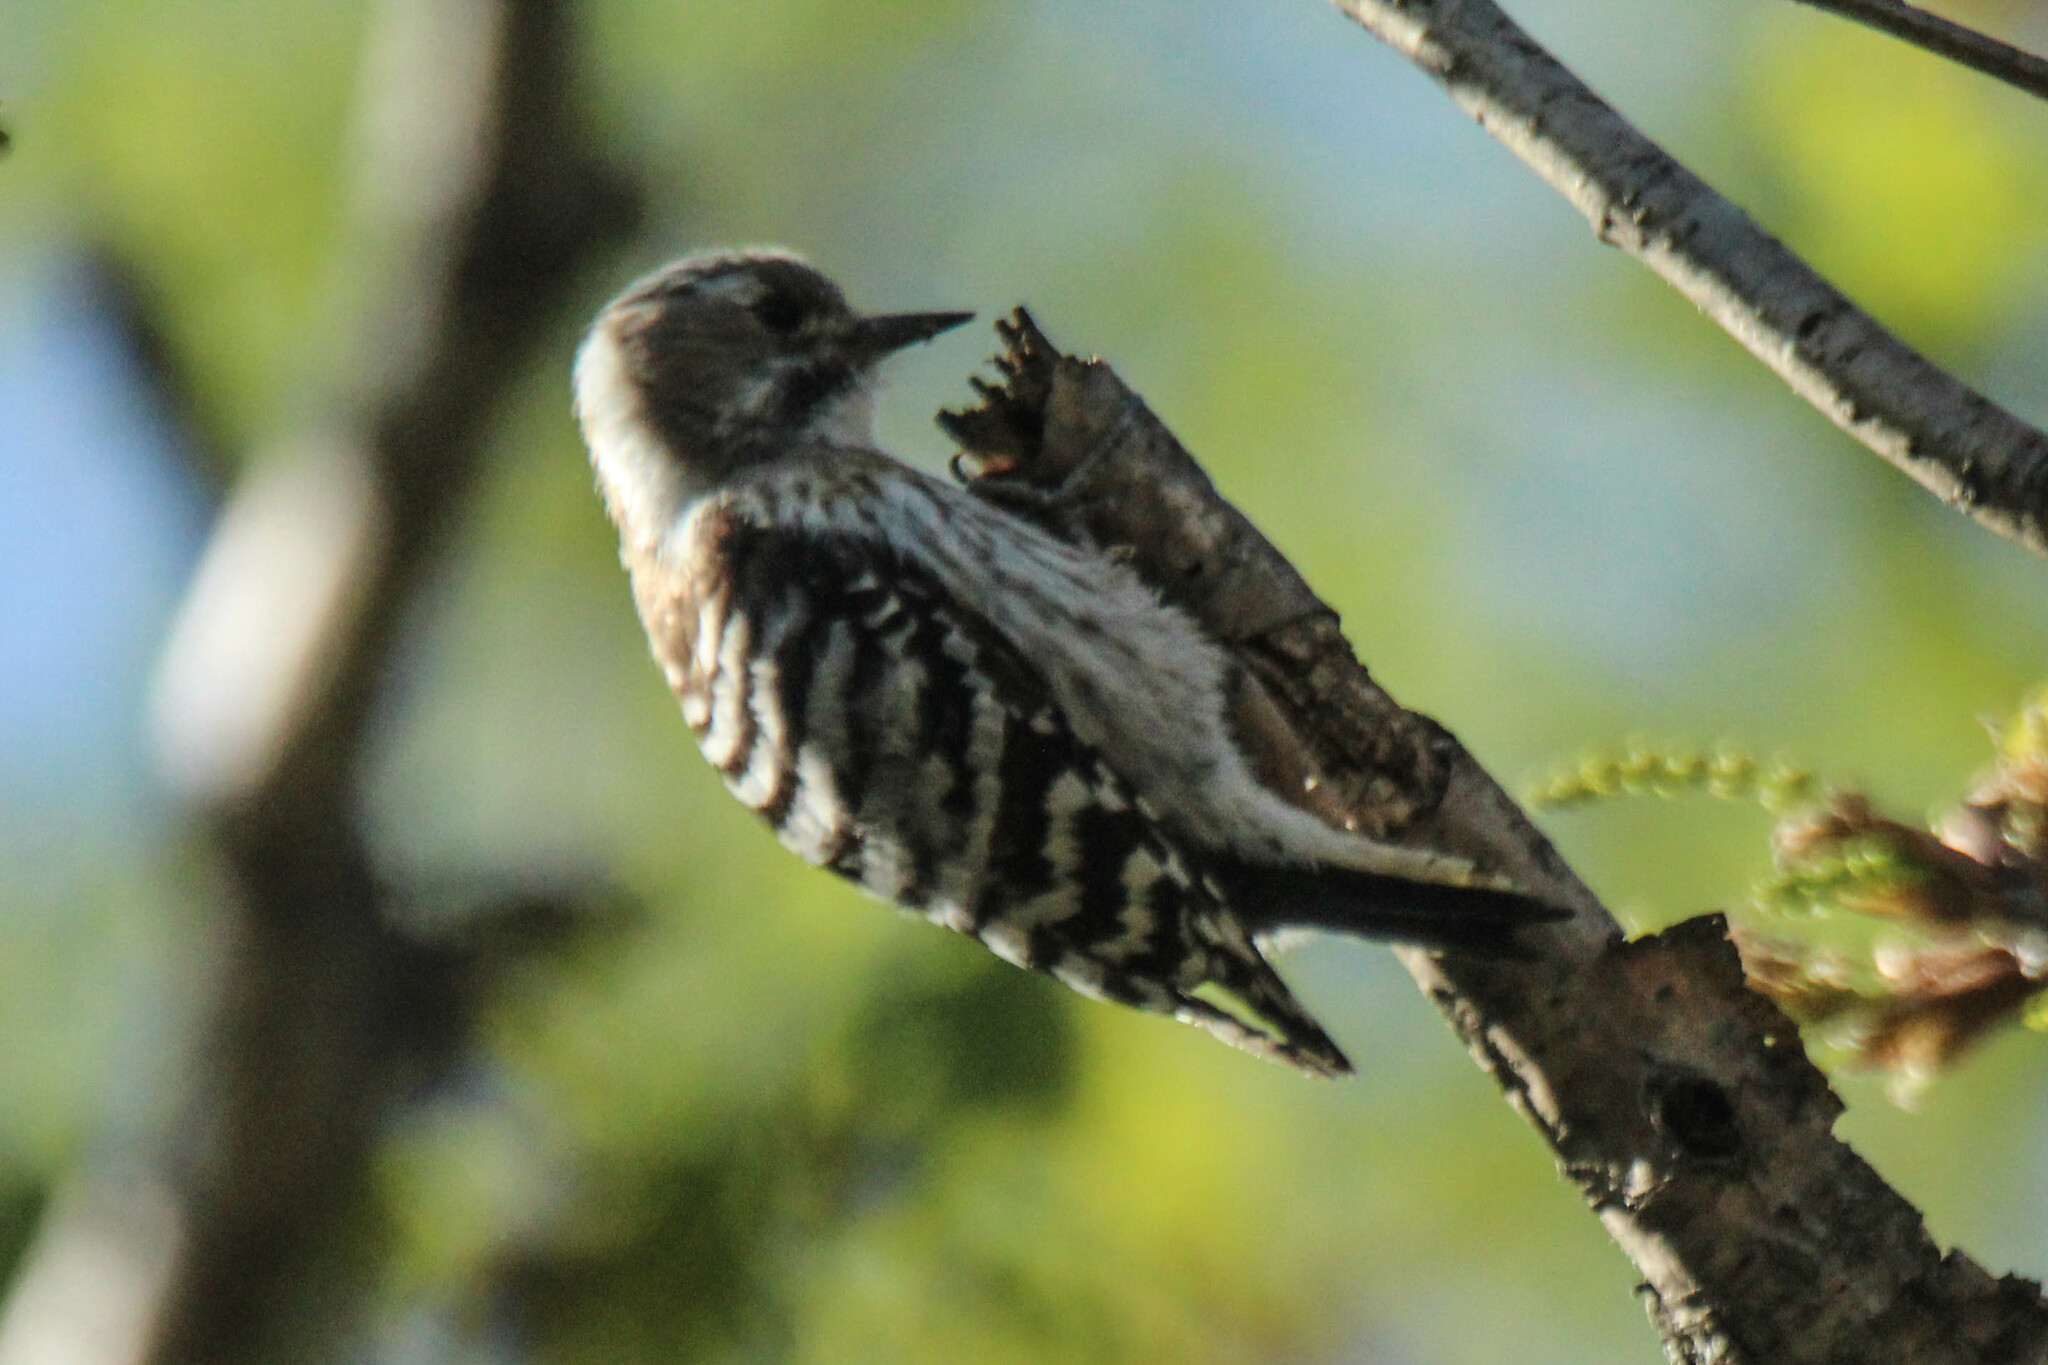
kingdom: Animalia
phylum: Chordata
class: Aves
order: Piciformes
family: Picidae
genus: Yungipicus
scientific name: Yungipicus kizuki
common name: Japanese pygmy woodpecker
